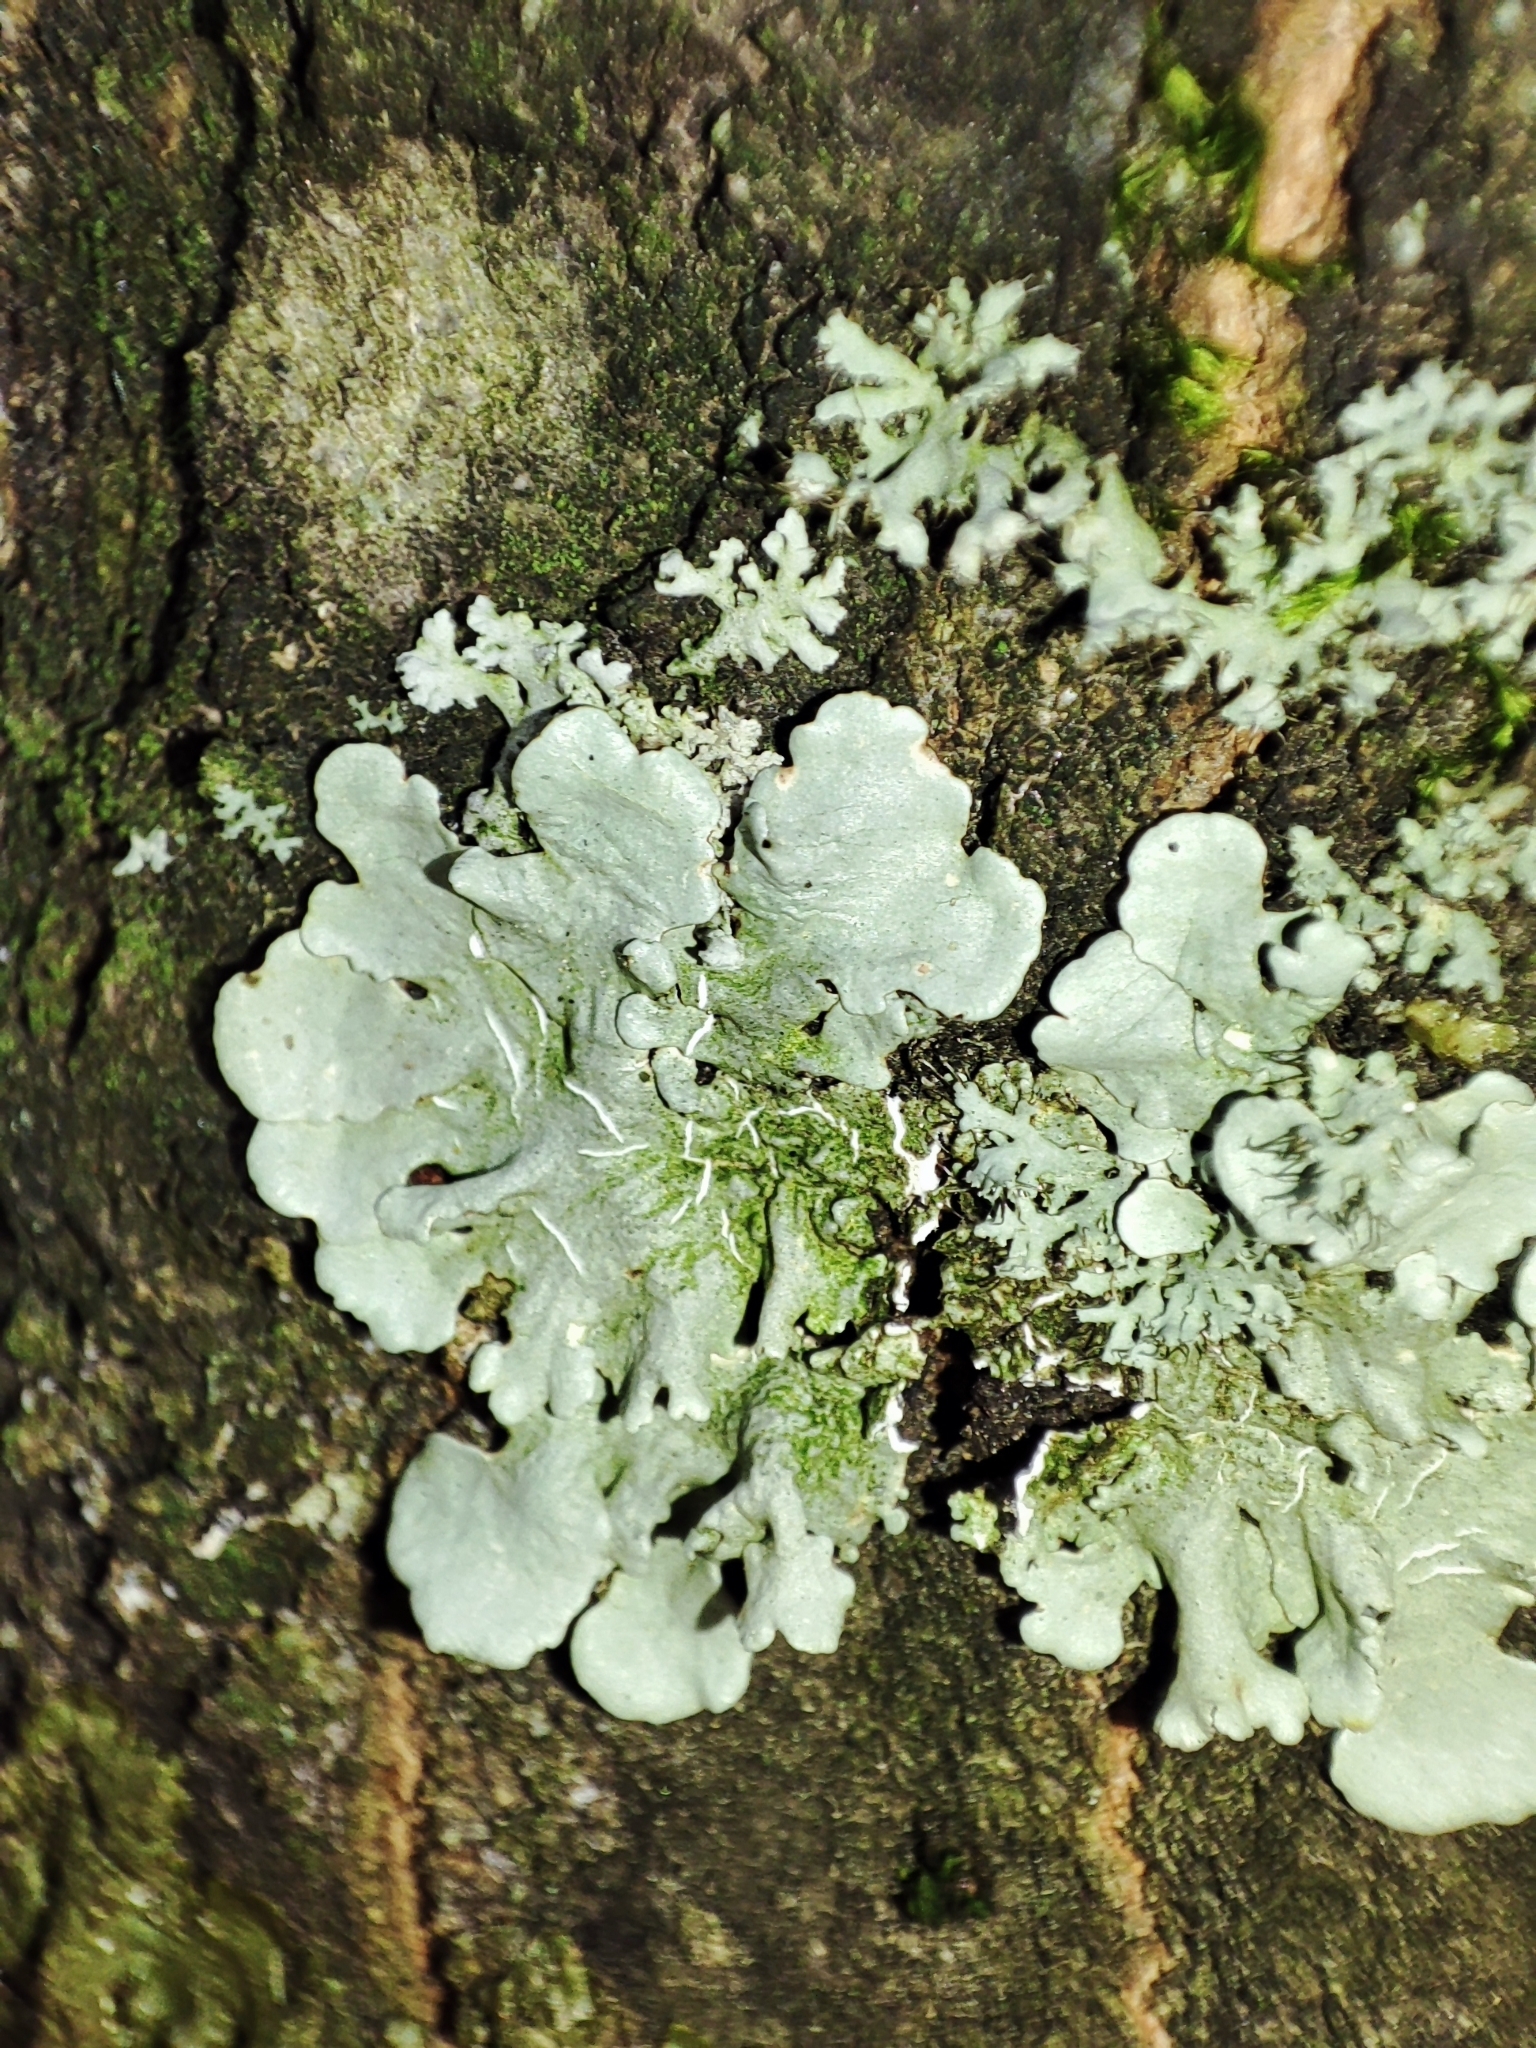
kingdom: Fungi
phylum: Ascomycota
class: Lecanoromycetes
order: Lecanorales
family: Parmeliaceae
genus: Parmelina
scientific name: Parmelina tiliacea
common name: Linden shield lichen
